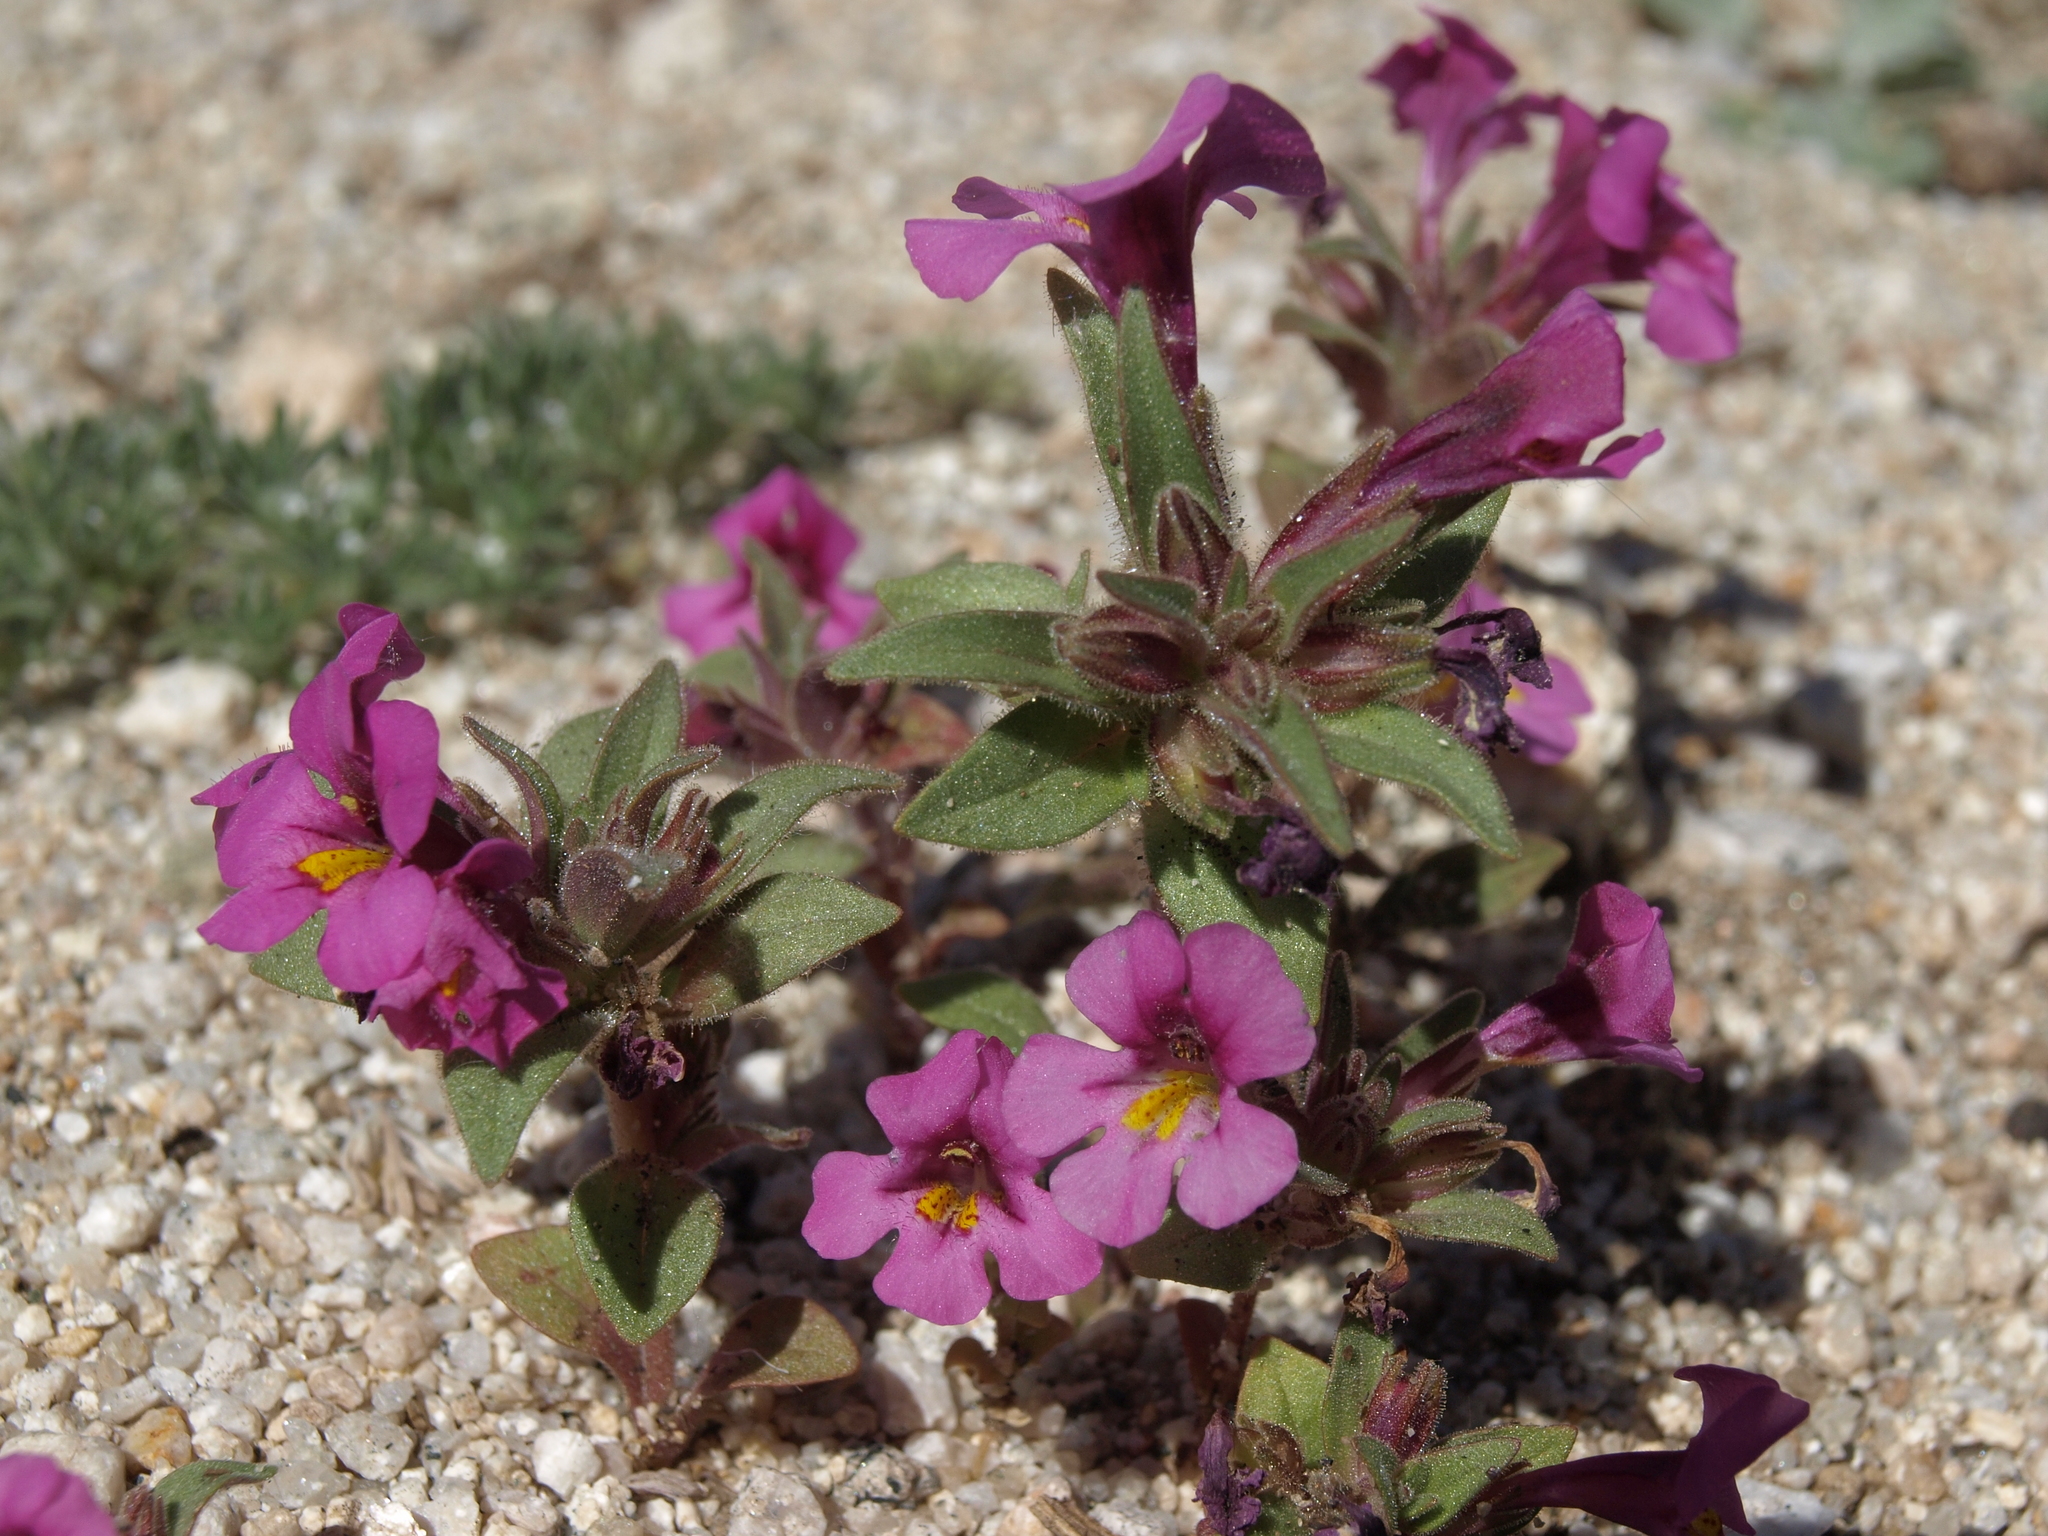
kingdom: Plantae
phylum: Tracheophyta
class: Magnoliopsida
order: Lamiales
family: Phrymaceae
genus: Diplacus
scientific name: Diplacus ovatus
